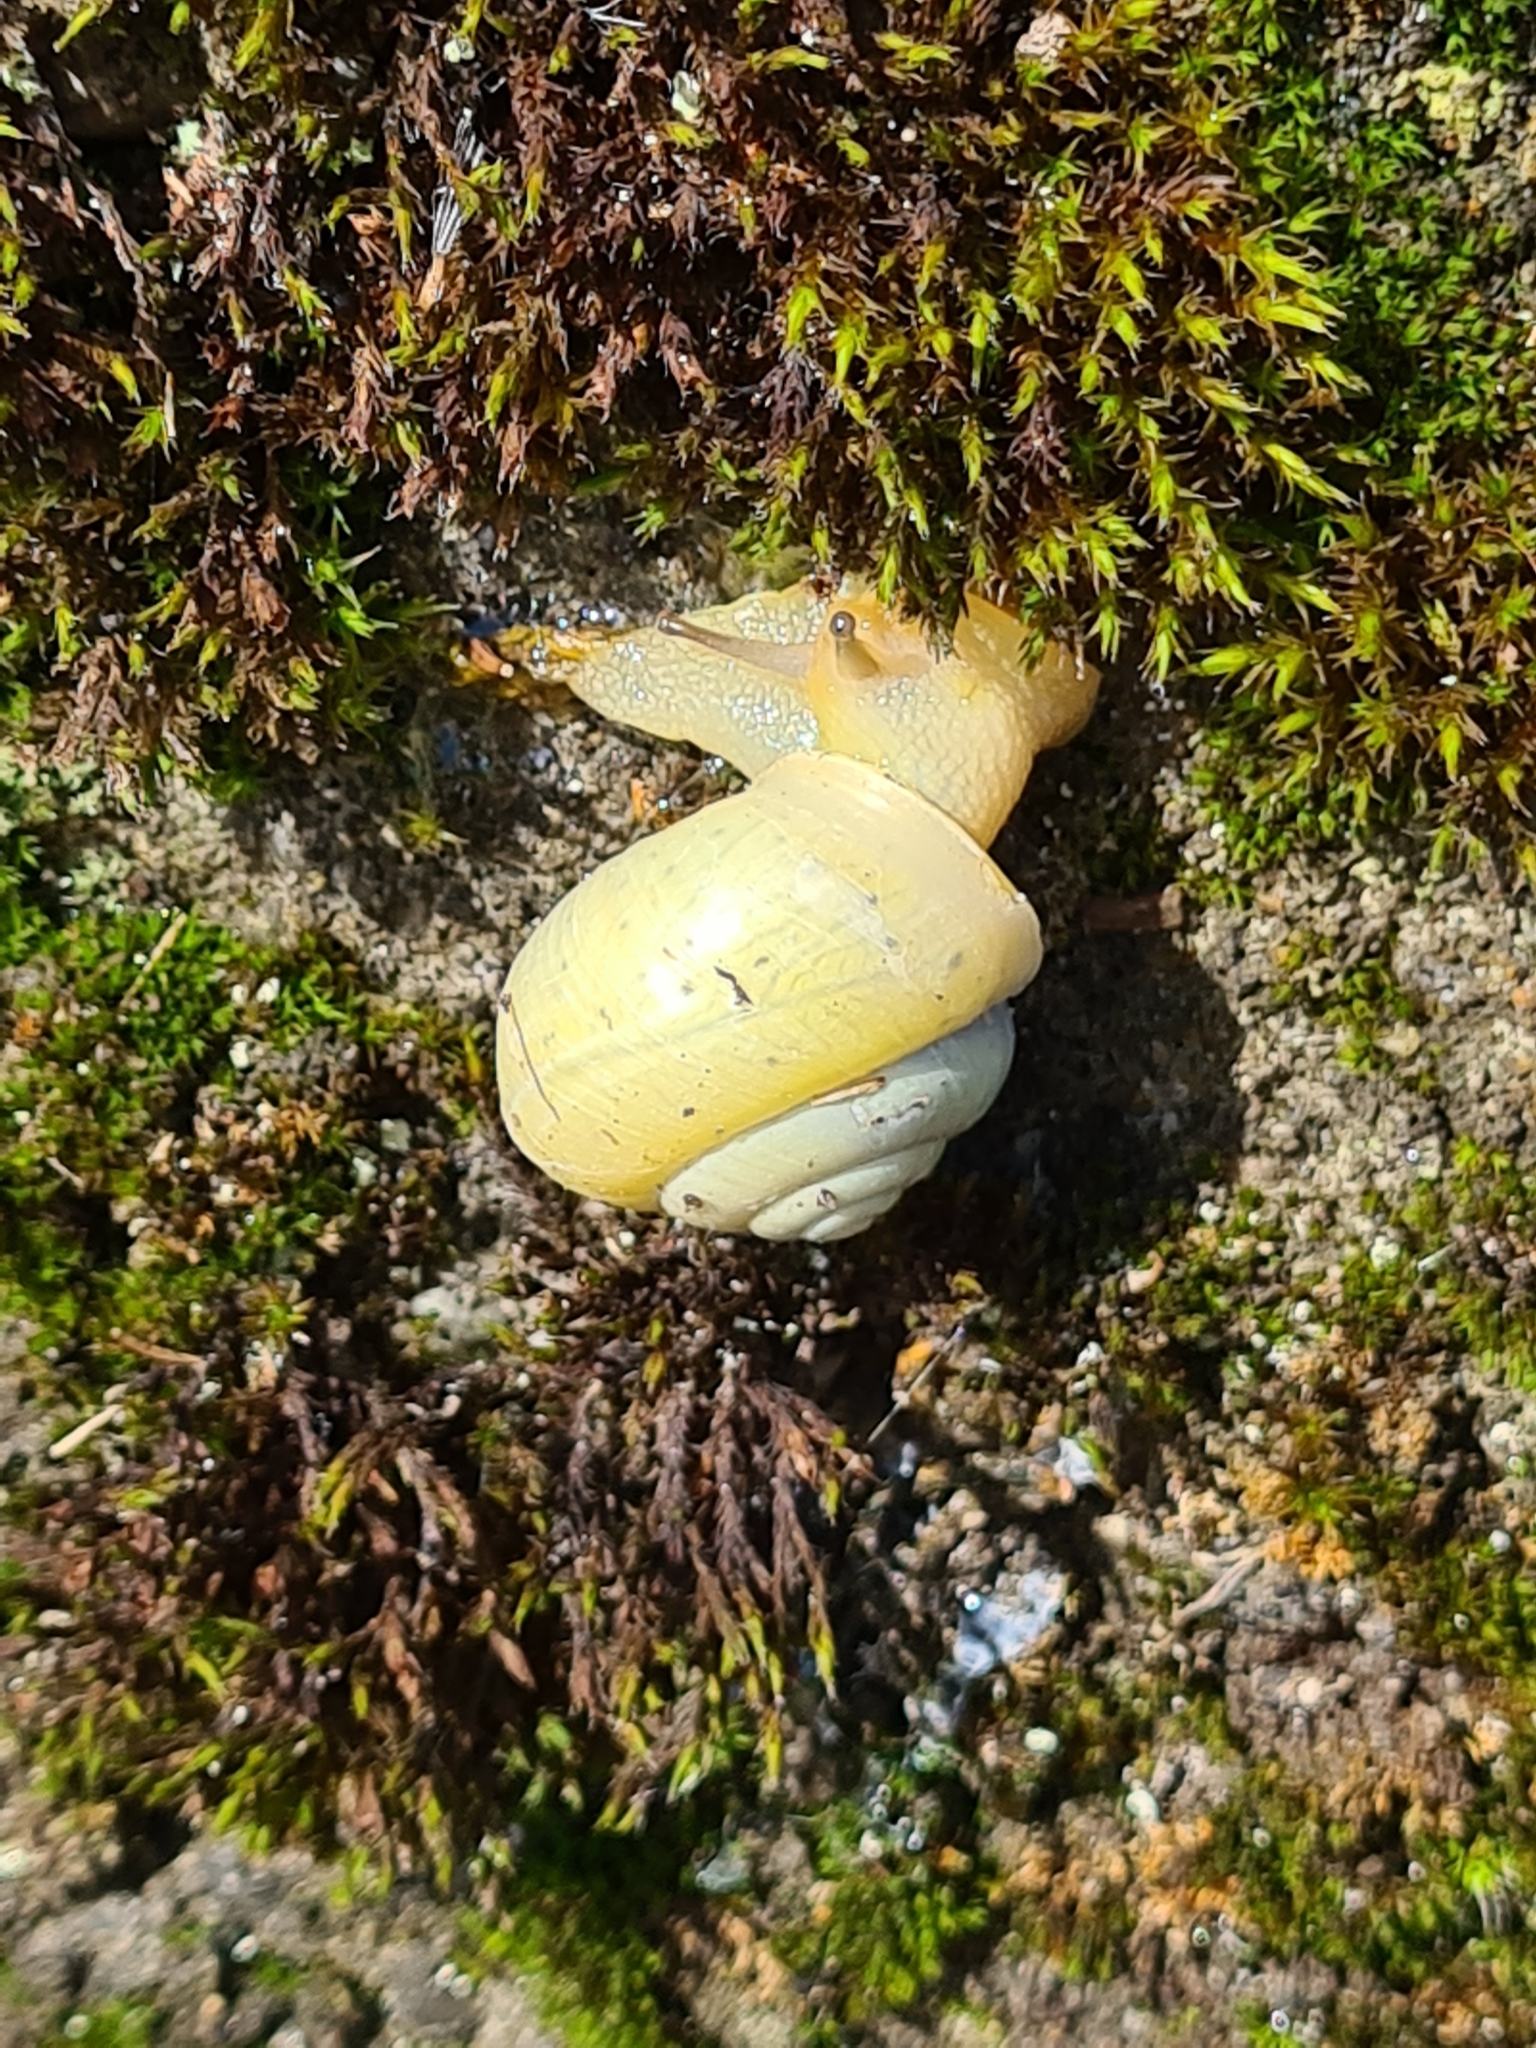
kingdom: Animalia
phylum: Mollusca
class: Gastropoda
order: Stylommatophora
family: Camaenidae
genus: Fruticicola
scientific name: Fruticicola fruticum
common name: Bush snail
